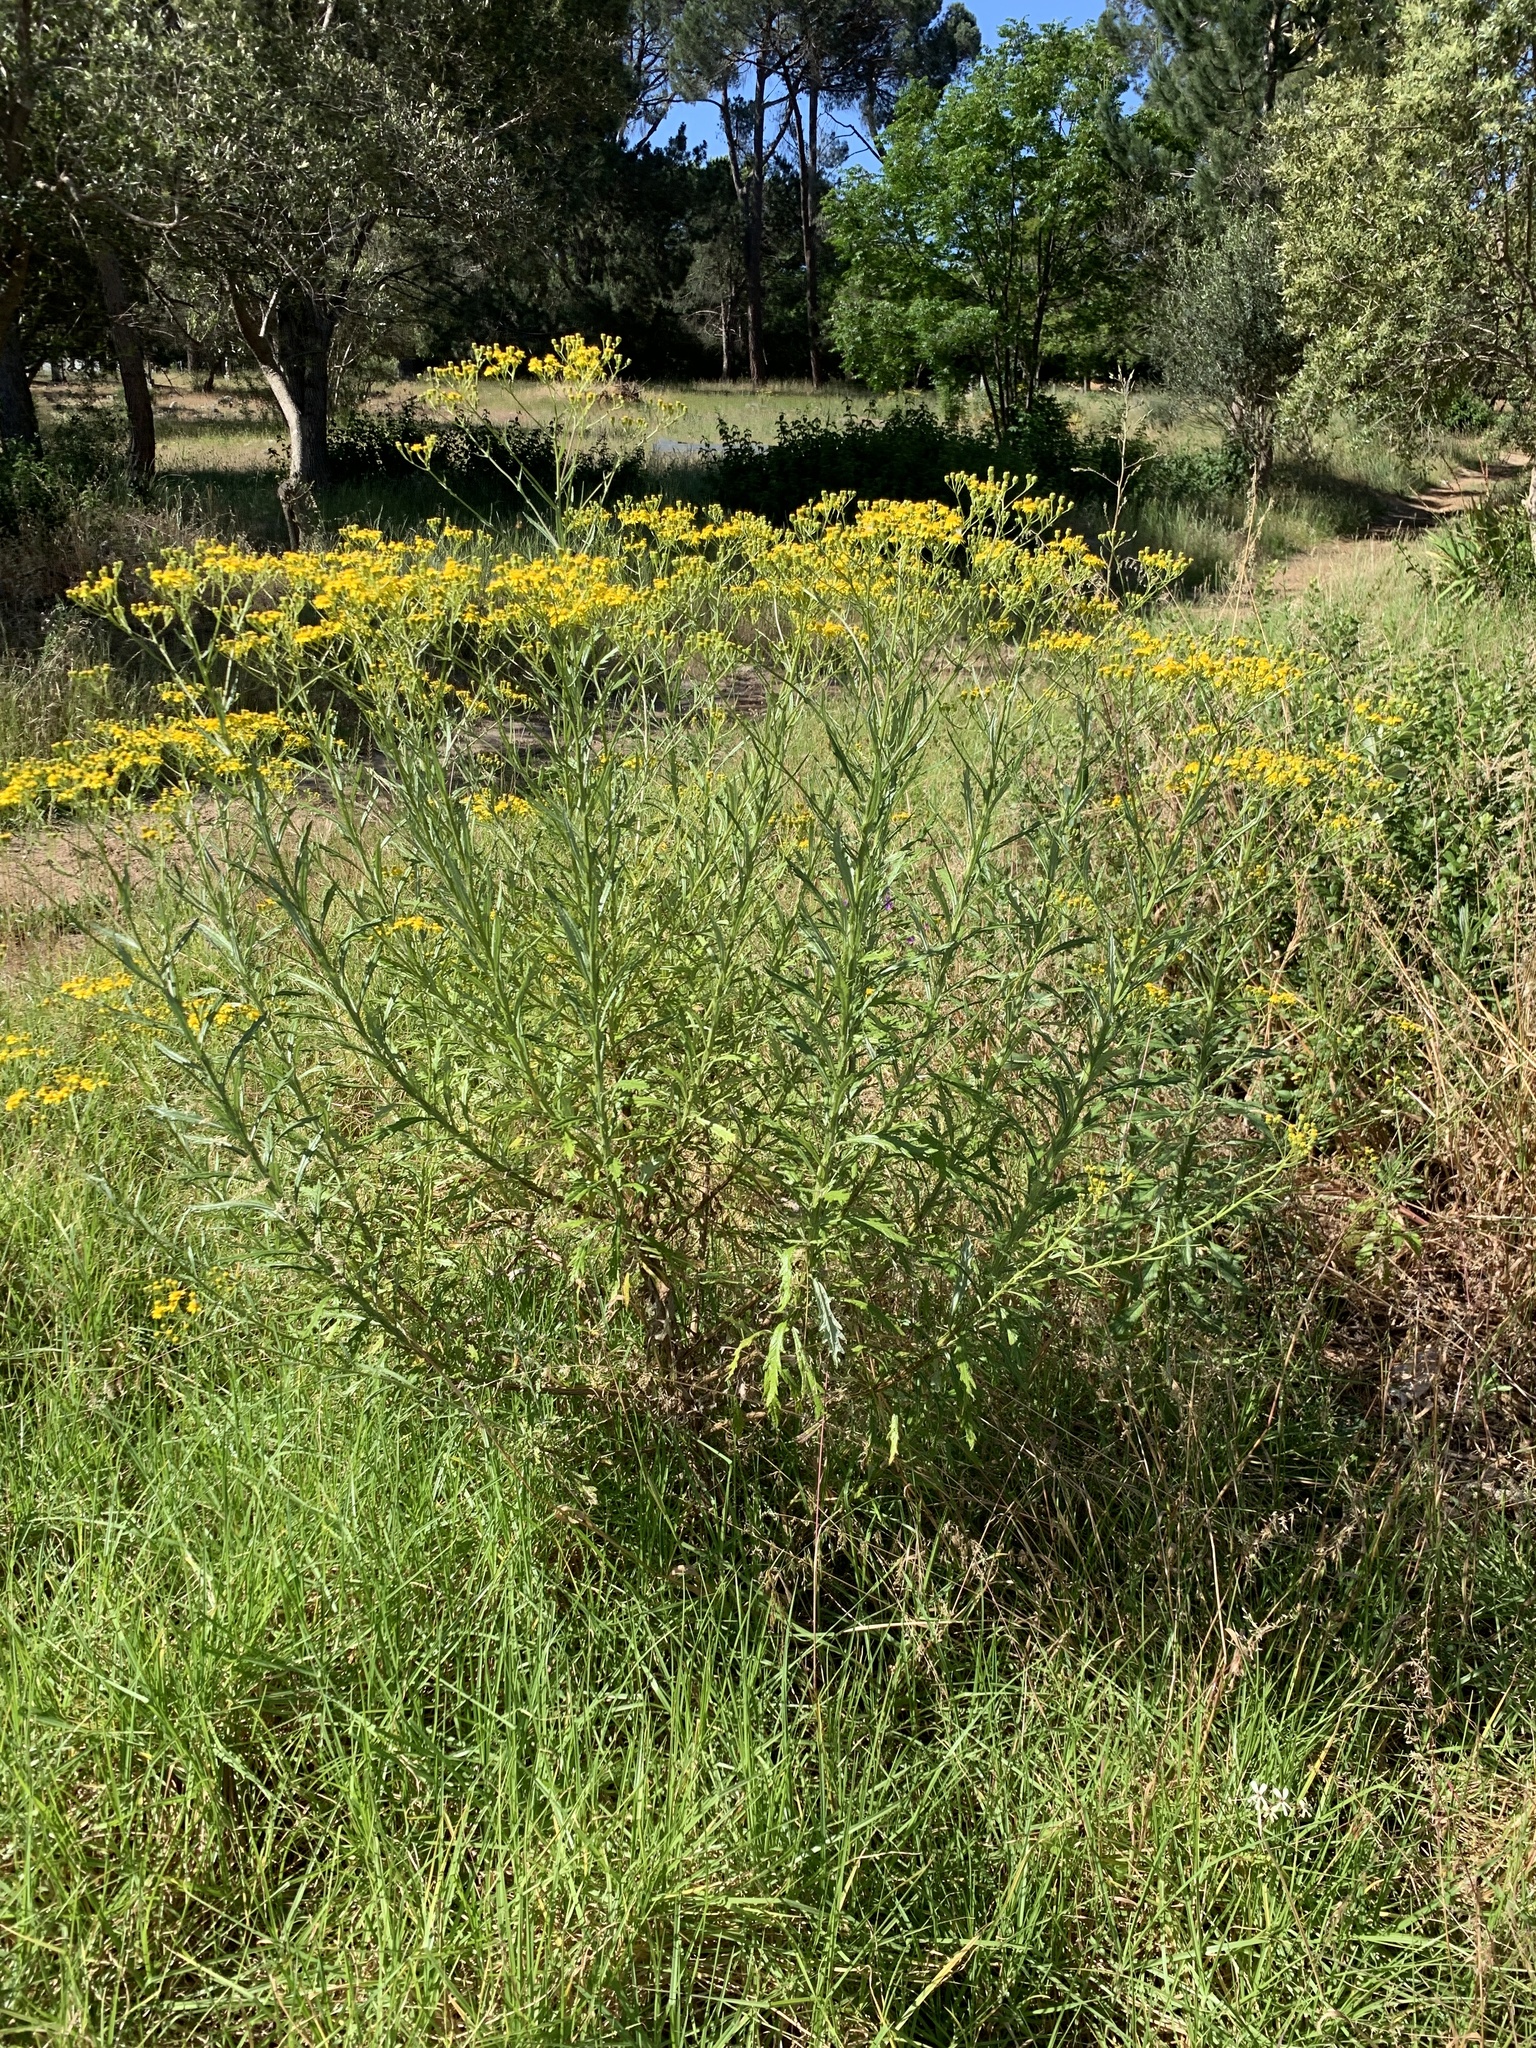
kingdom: Plantae
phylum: Tracheophyta
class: Magnoliopsida
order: Asterales
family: Asteraceae
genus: Senecio
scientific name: Senecio pterophorus
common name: Shoddy ragwort
